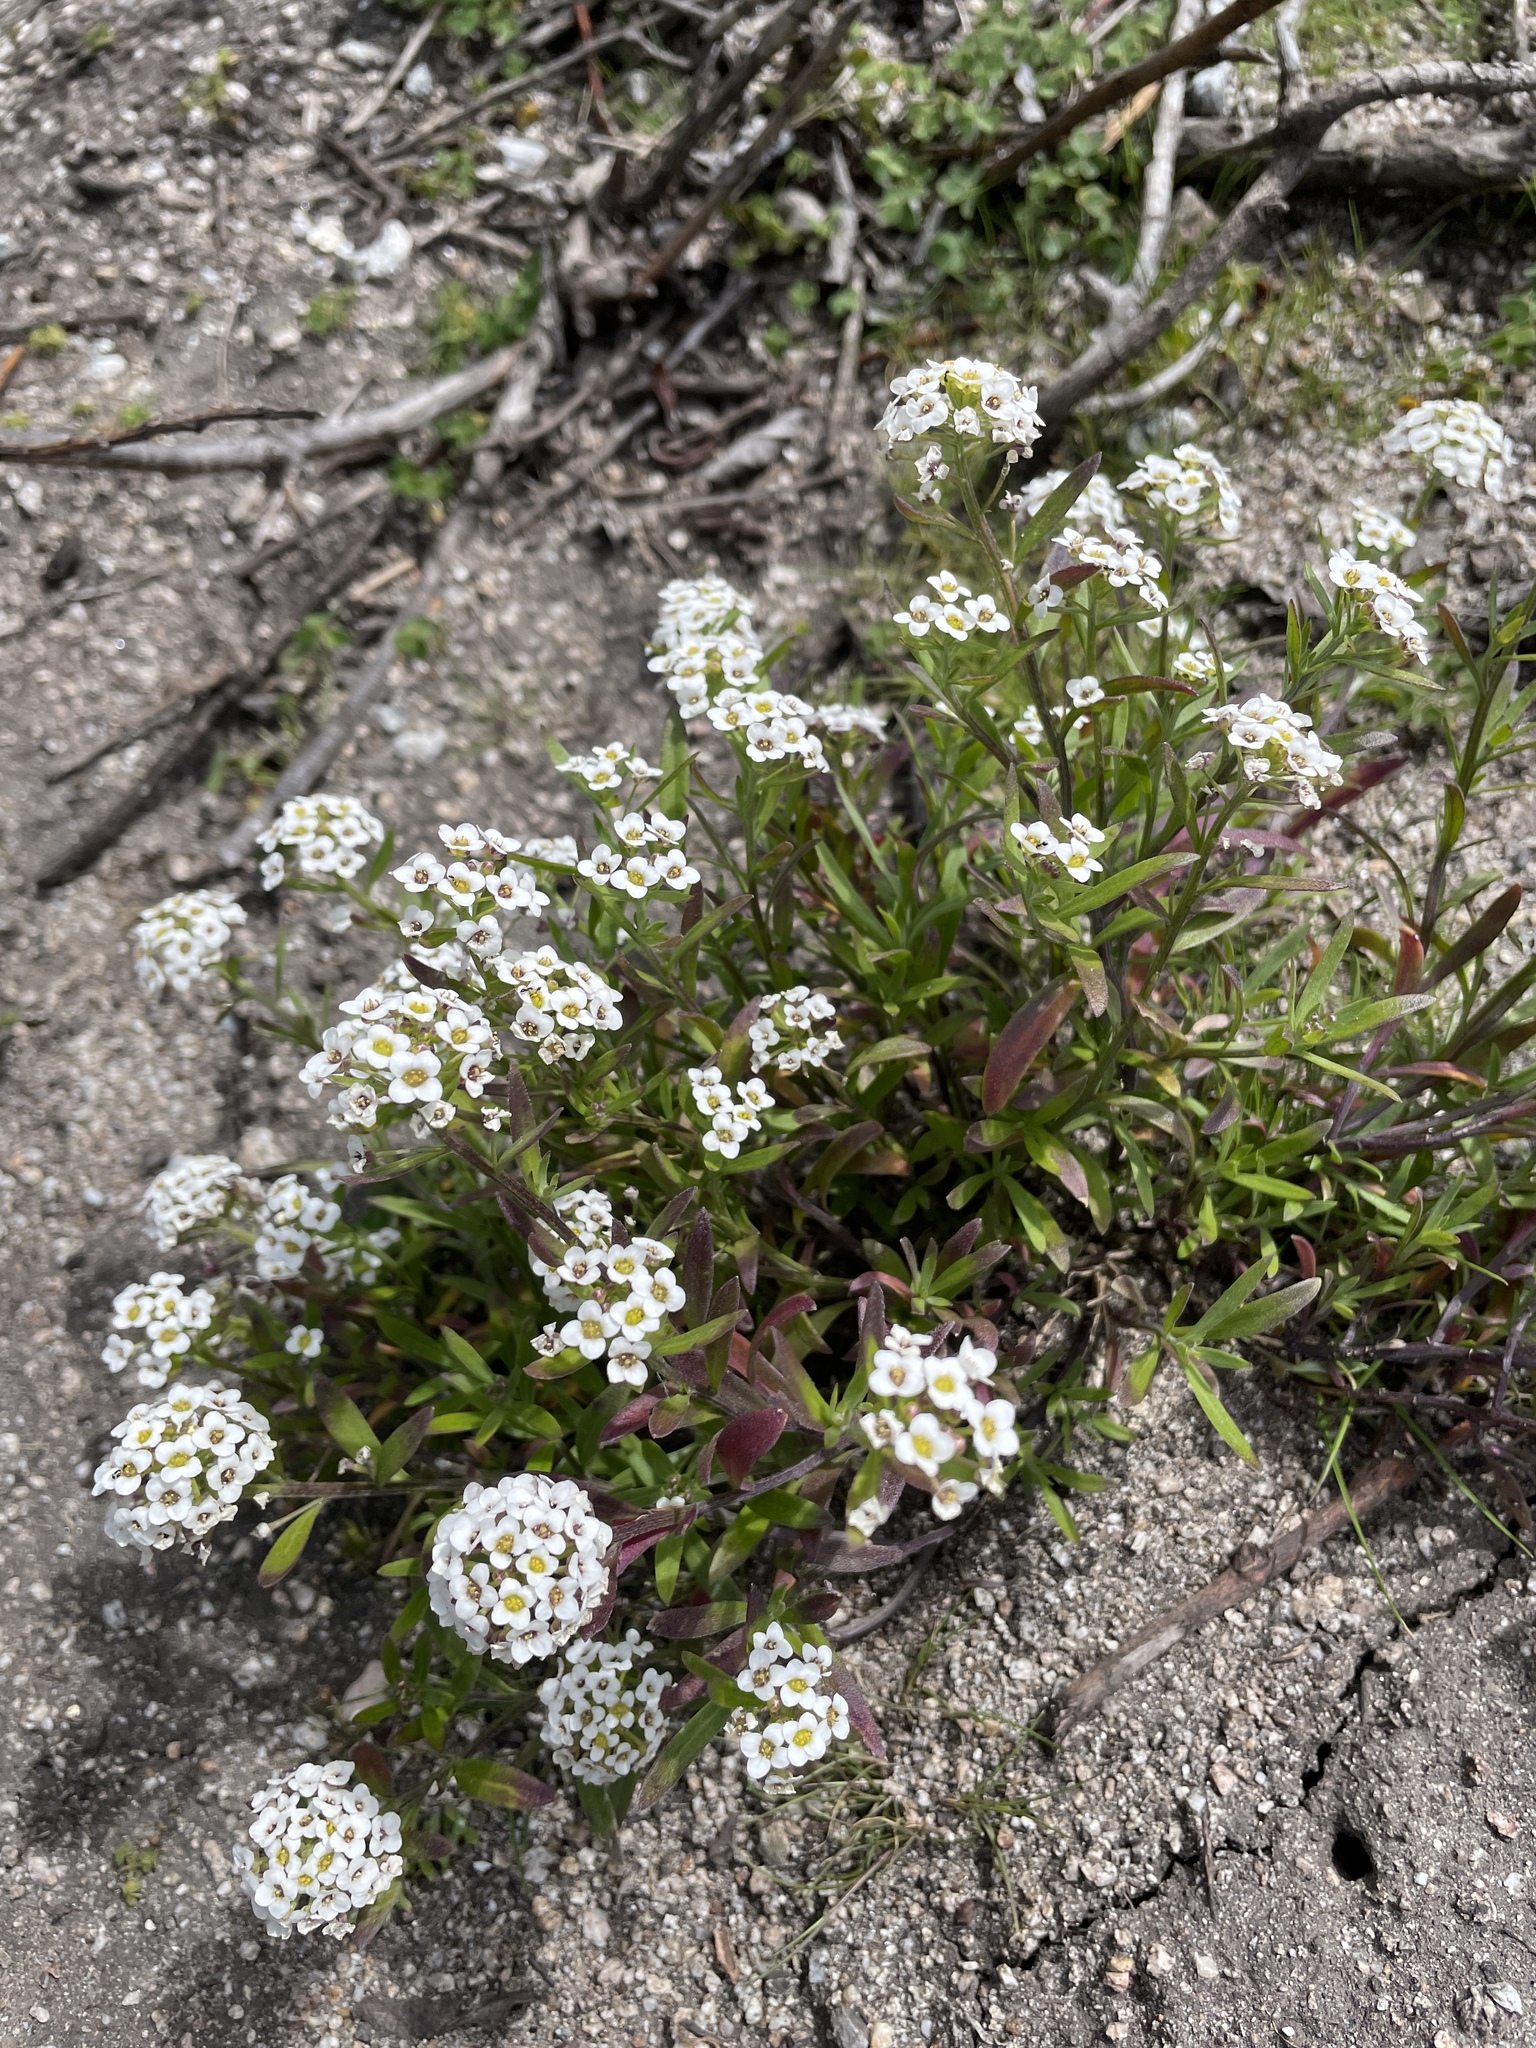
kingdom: Plantae
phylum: Tracheophyta
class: Magnoliopsida
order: Brassicales
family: Brassicaceae
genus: Lobularia
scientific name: Lobularia maritima
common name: Sweet alison
